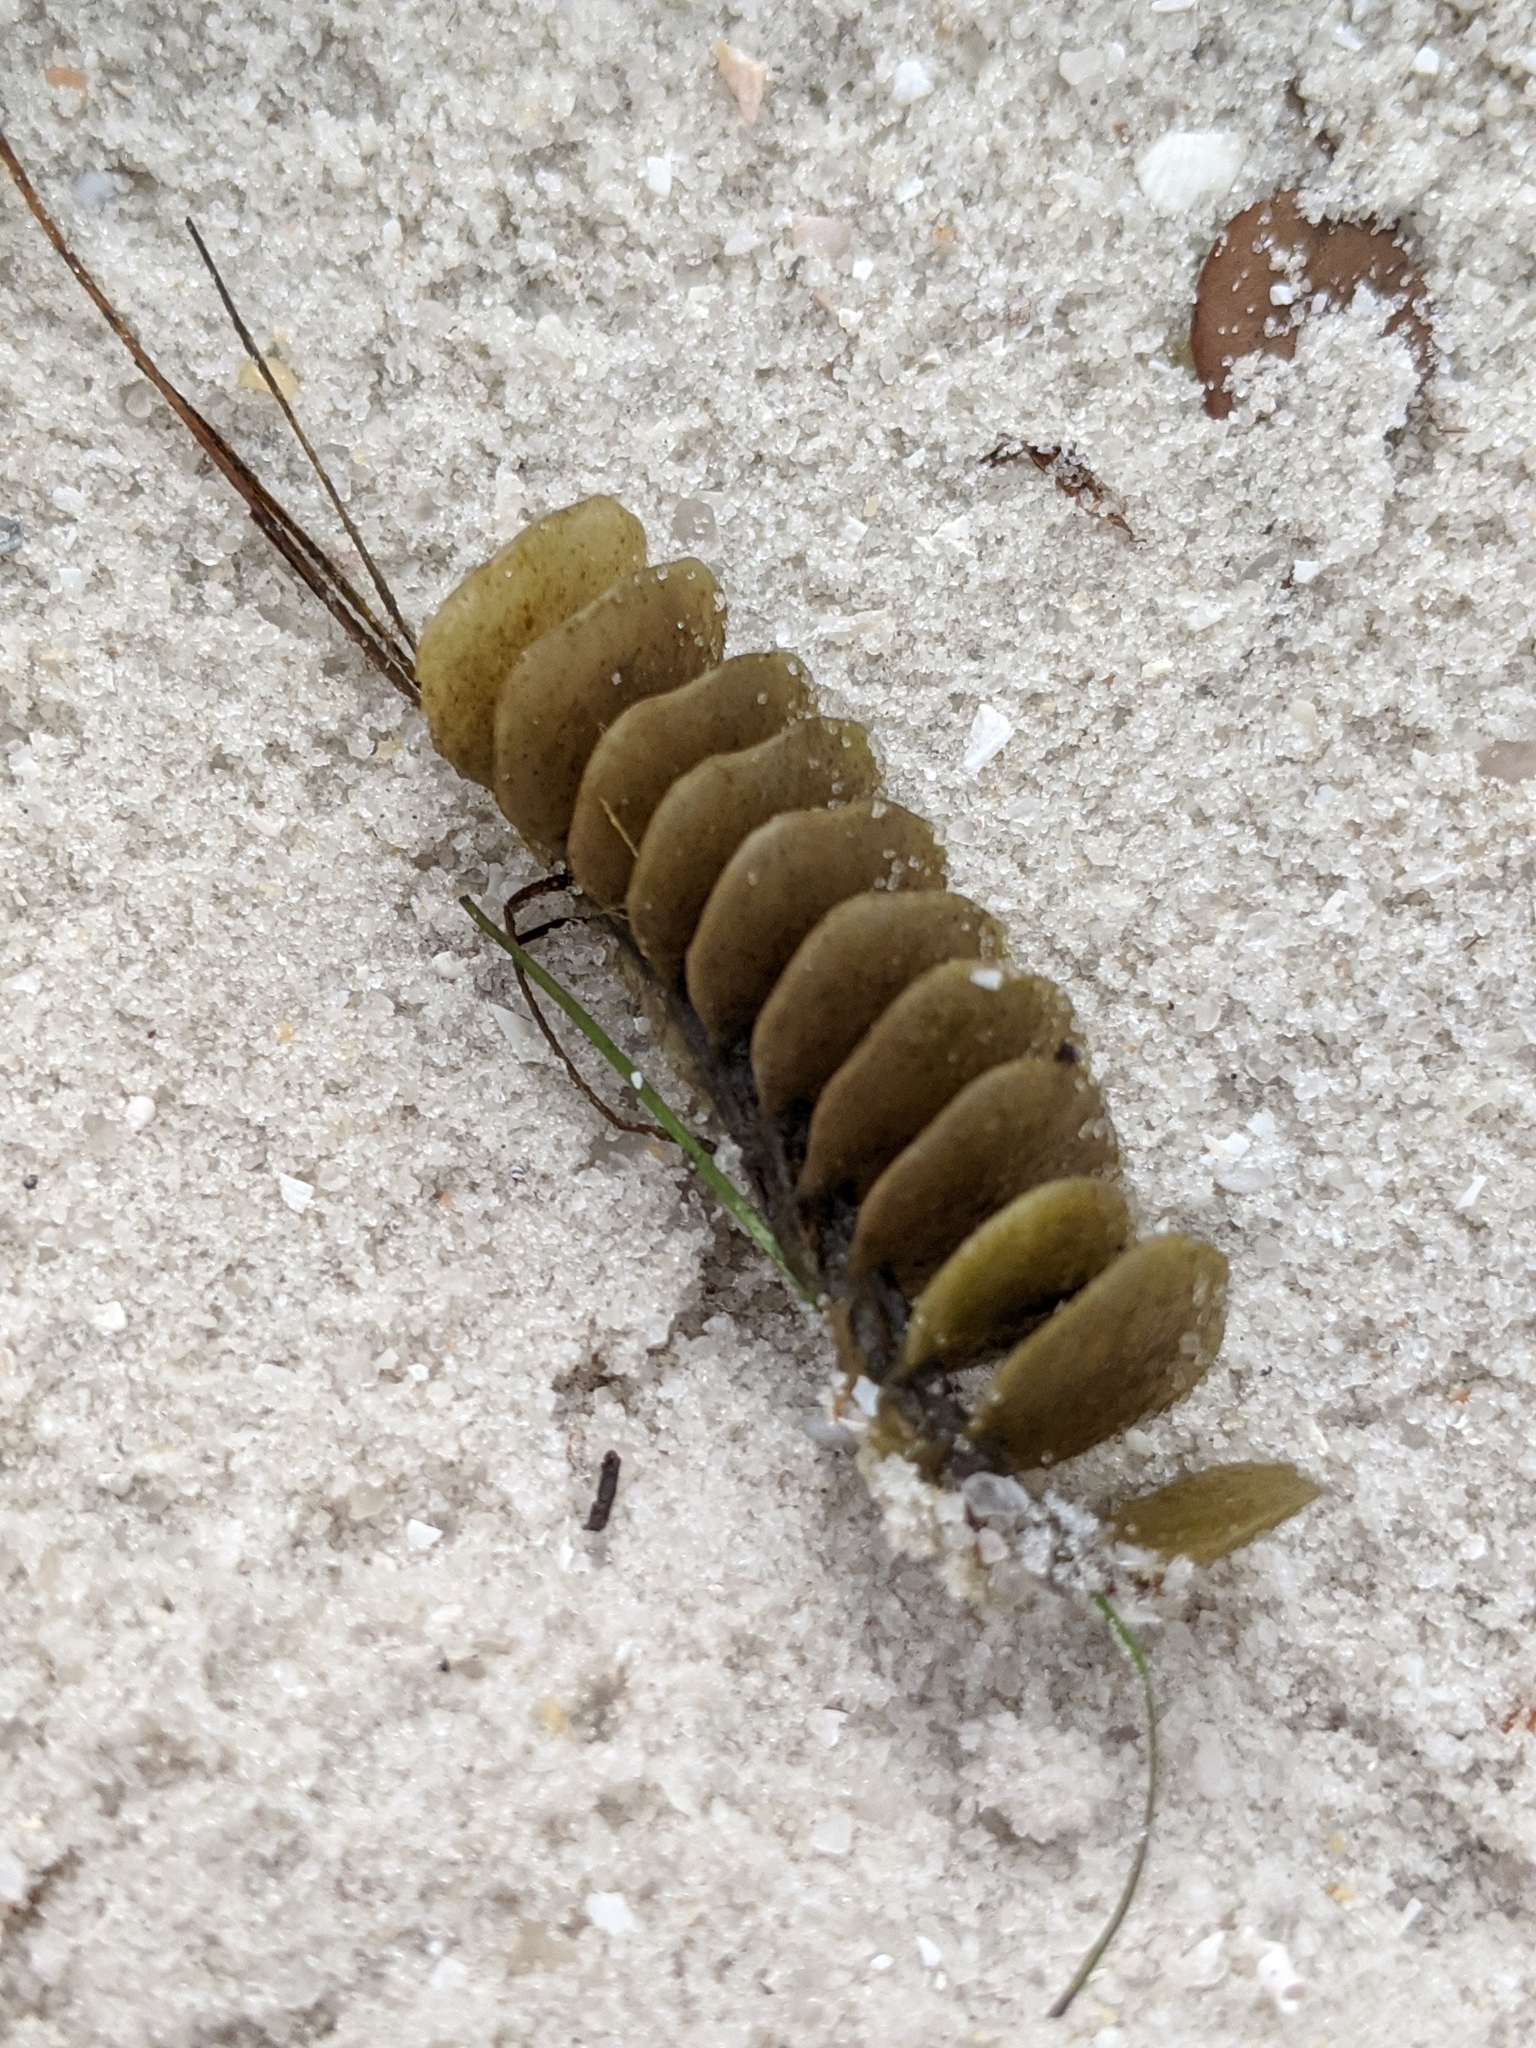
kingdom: Animalia
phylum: Mollusca
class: Gastropoda
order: Neogastropoda
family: Melongenidae
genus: Melongena
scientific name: Melongena corona
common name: American crown conch
